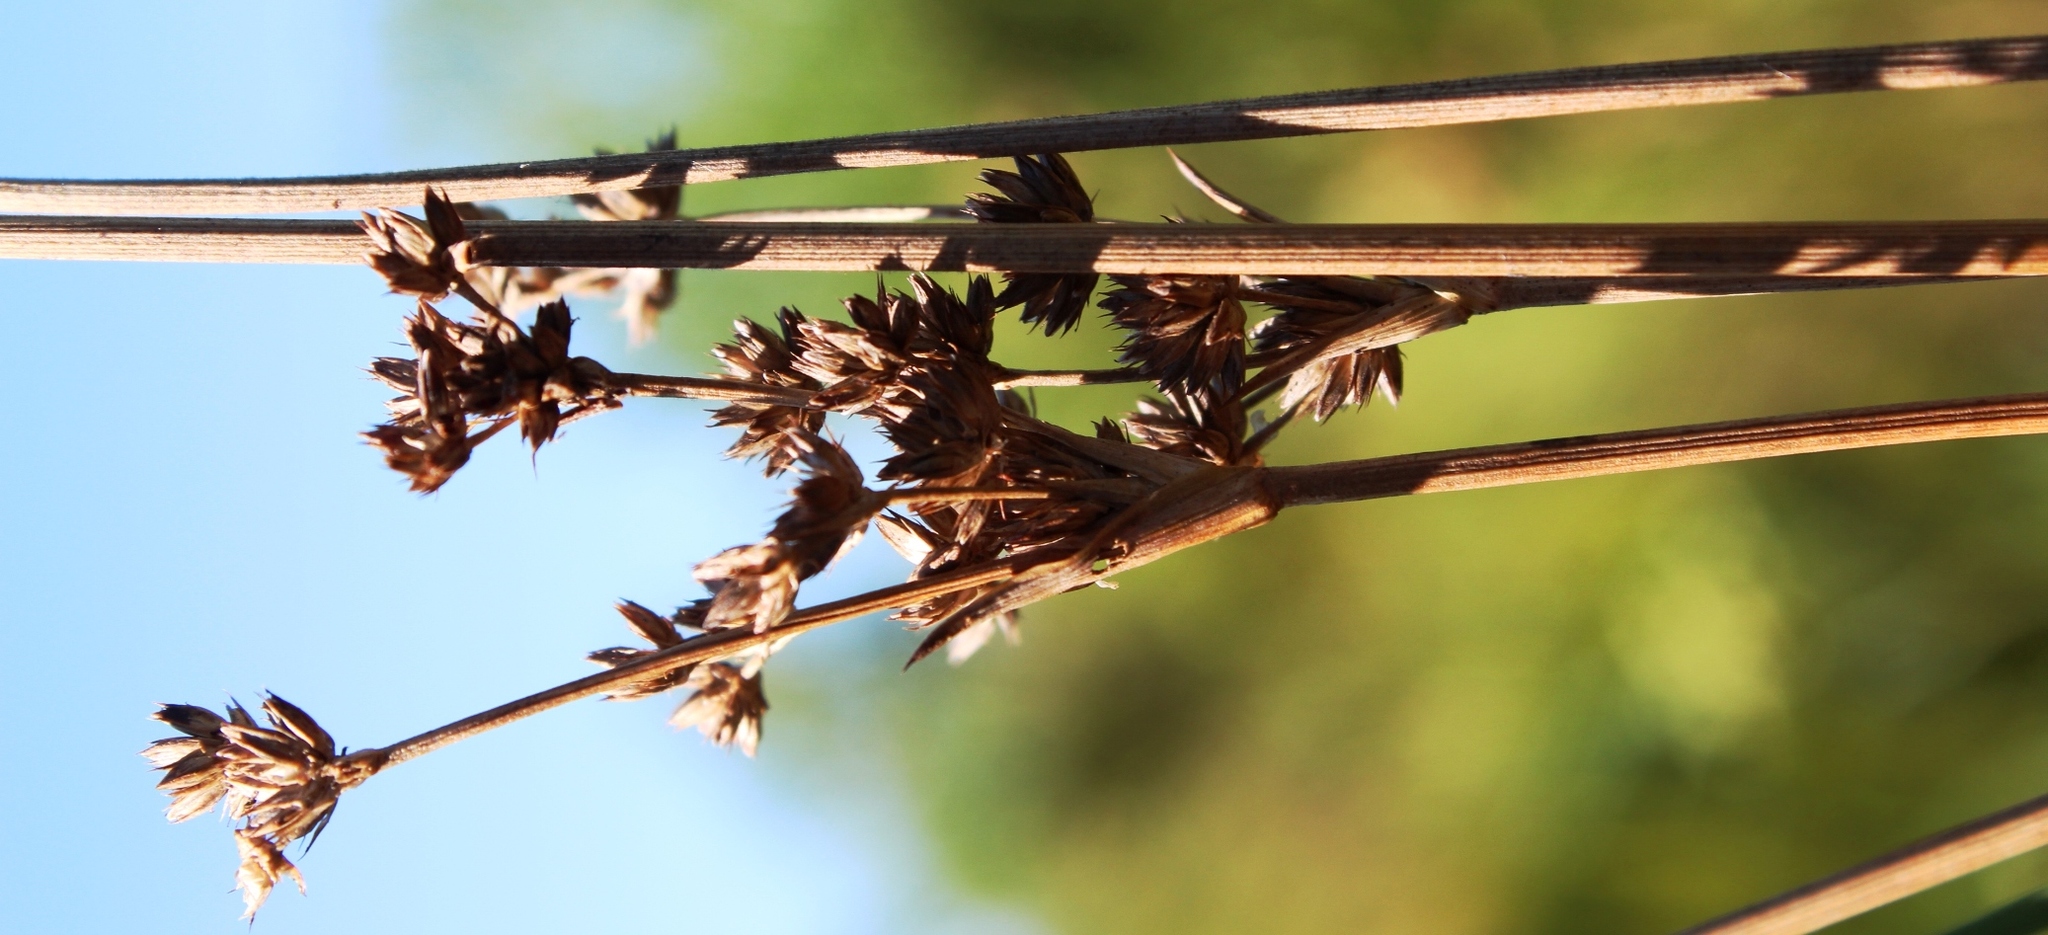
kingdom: Plantae
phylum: Tracheophyta
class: Liliopsida
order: Poales
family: Juncaceae
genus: Juncus
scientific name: Juncus lomatophyllus
